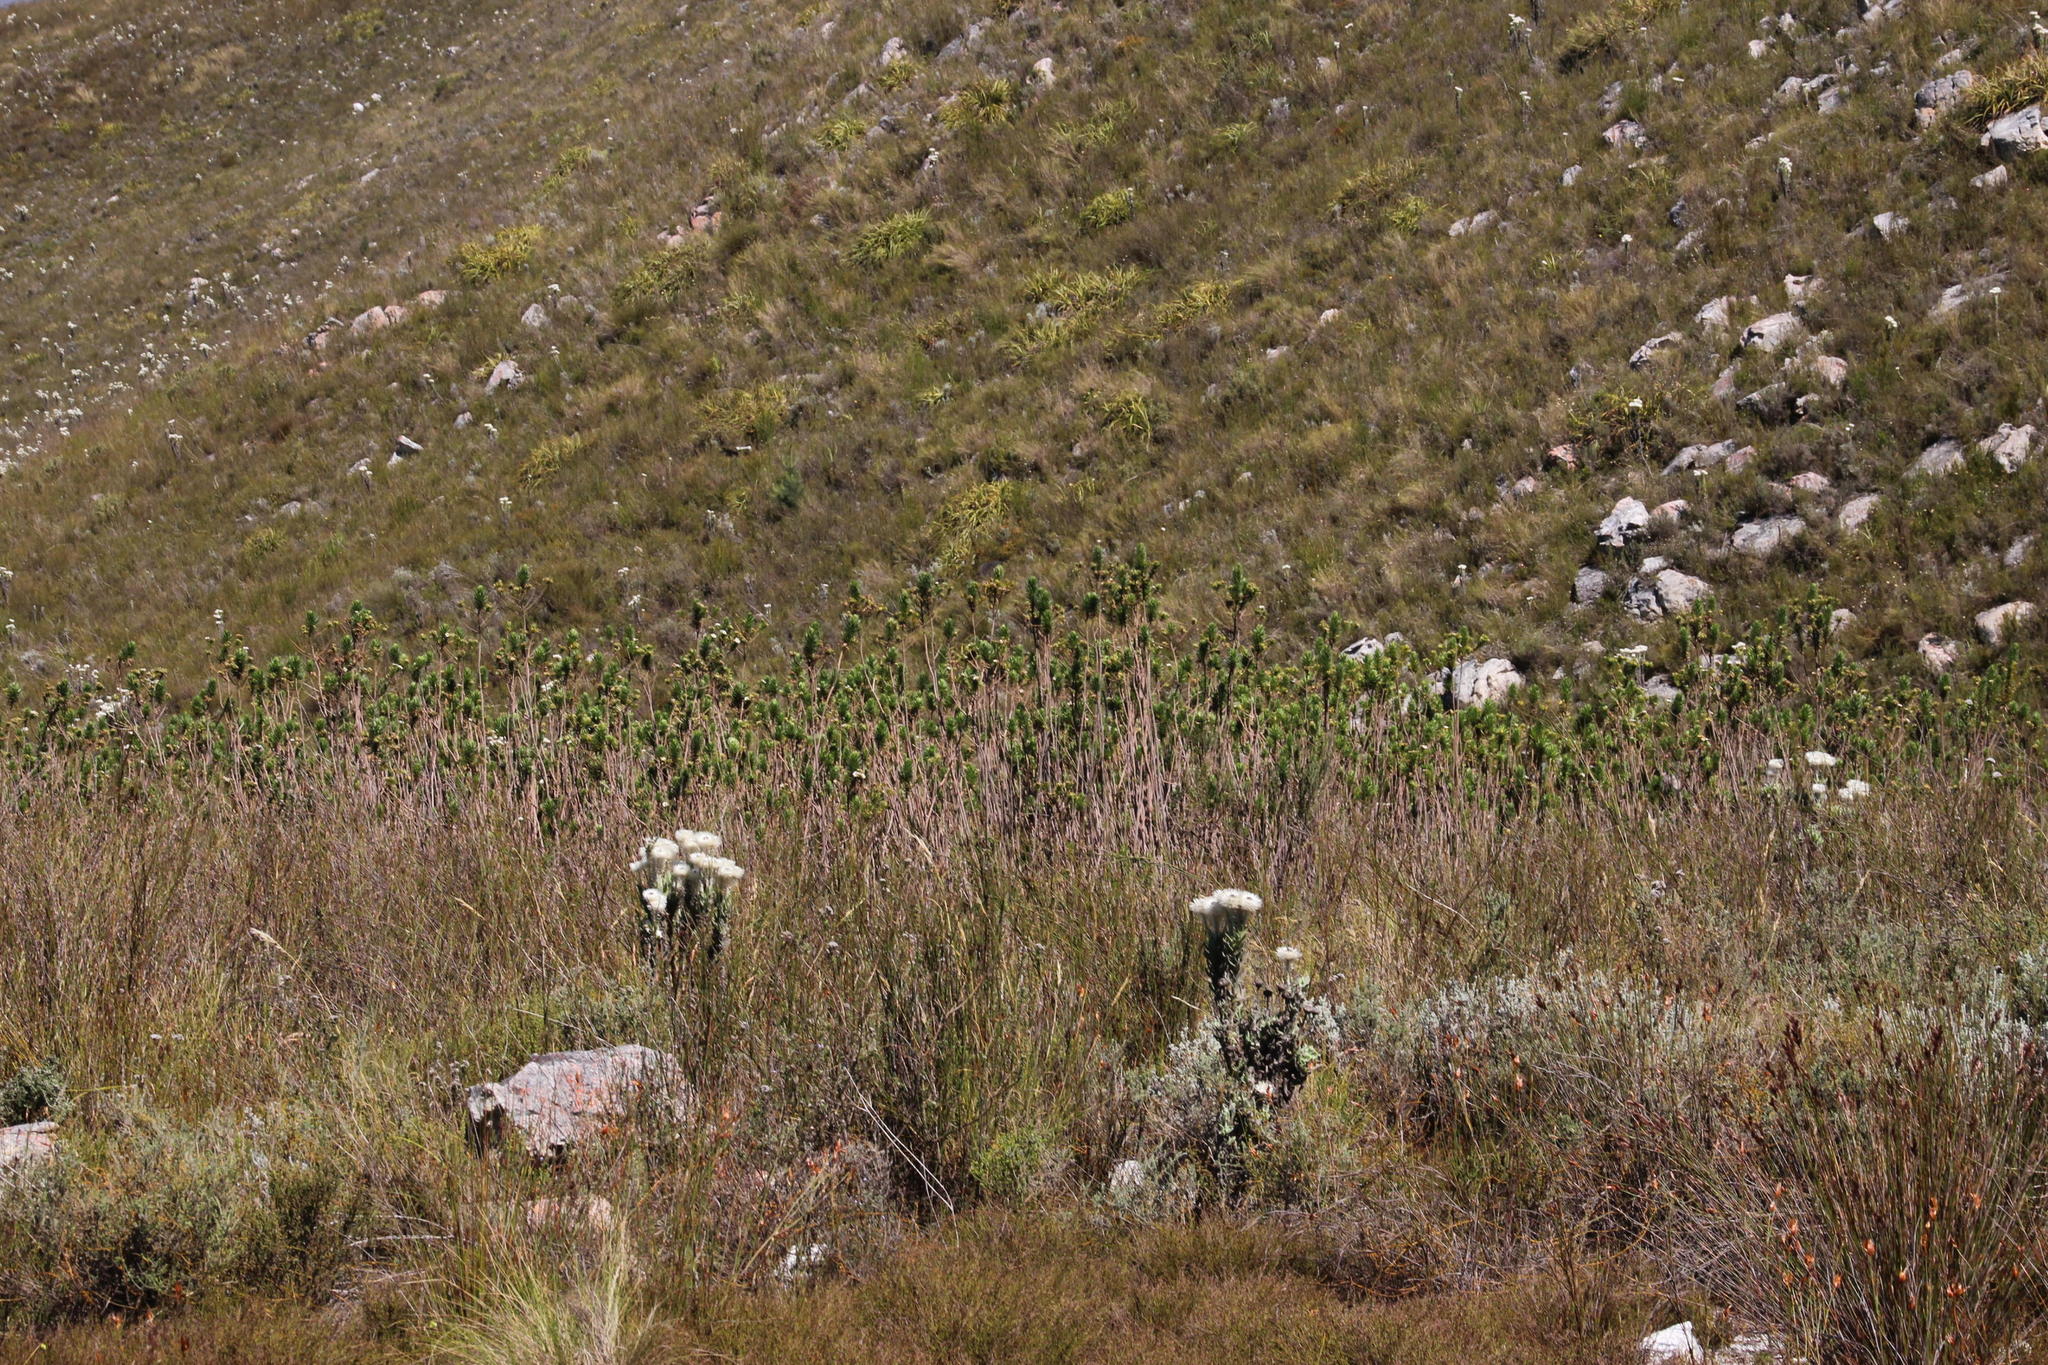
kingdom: Plantae
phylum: Tracheophyta
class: Magnoliopsida
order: Asterales
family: Asteraceae
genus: Osmitopsis
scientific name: Osmitopsis asteriscoides
